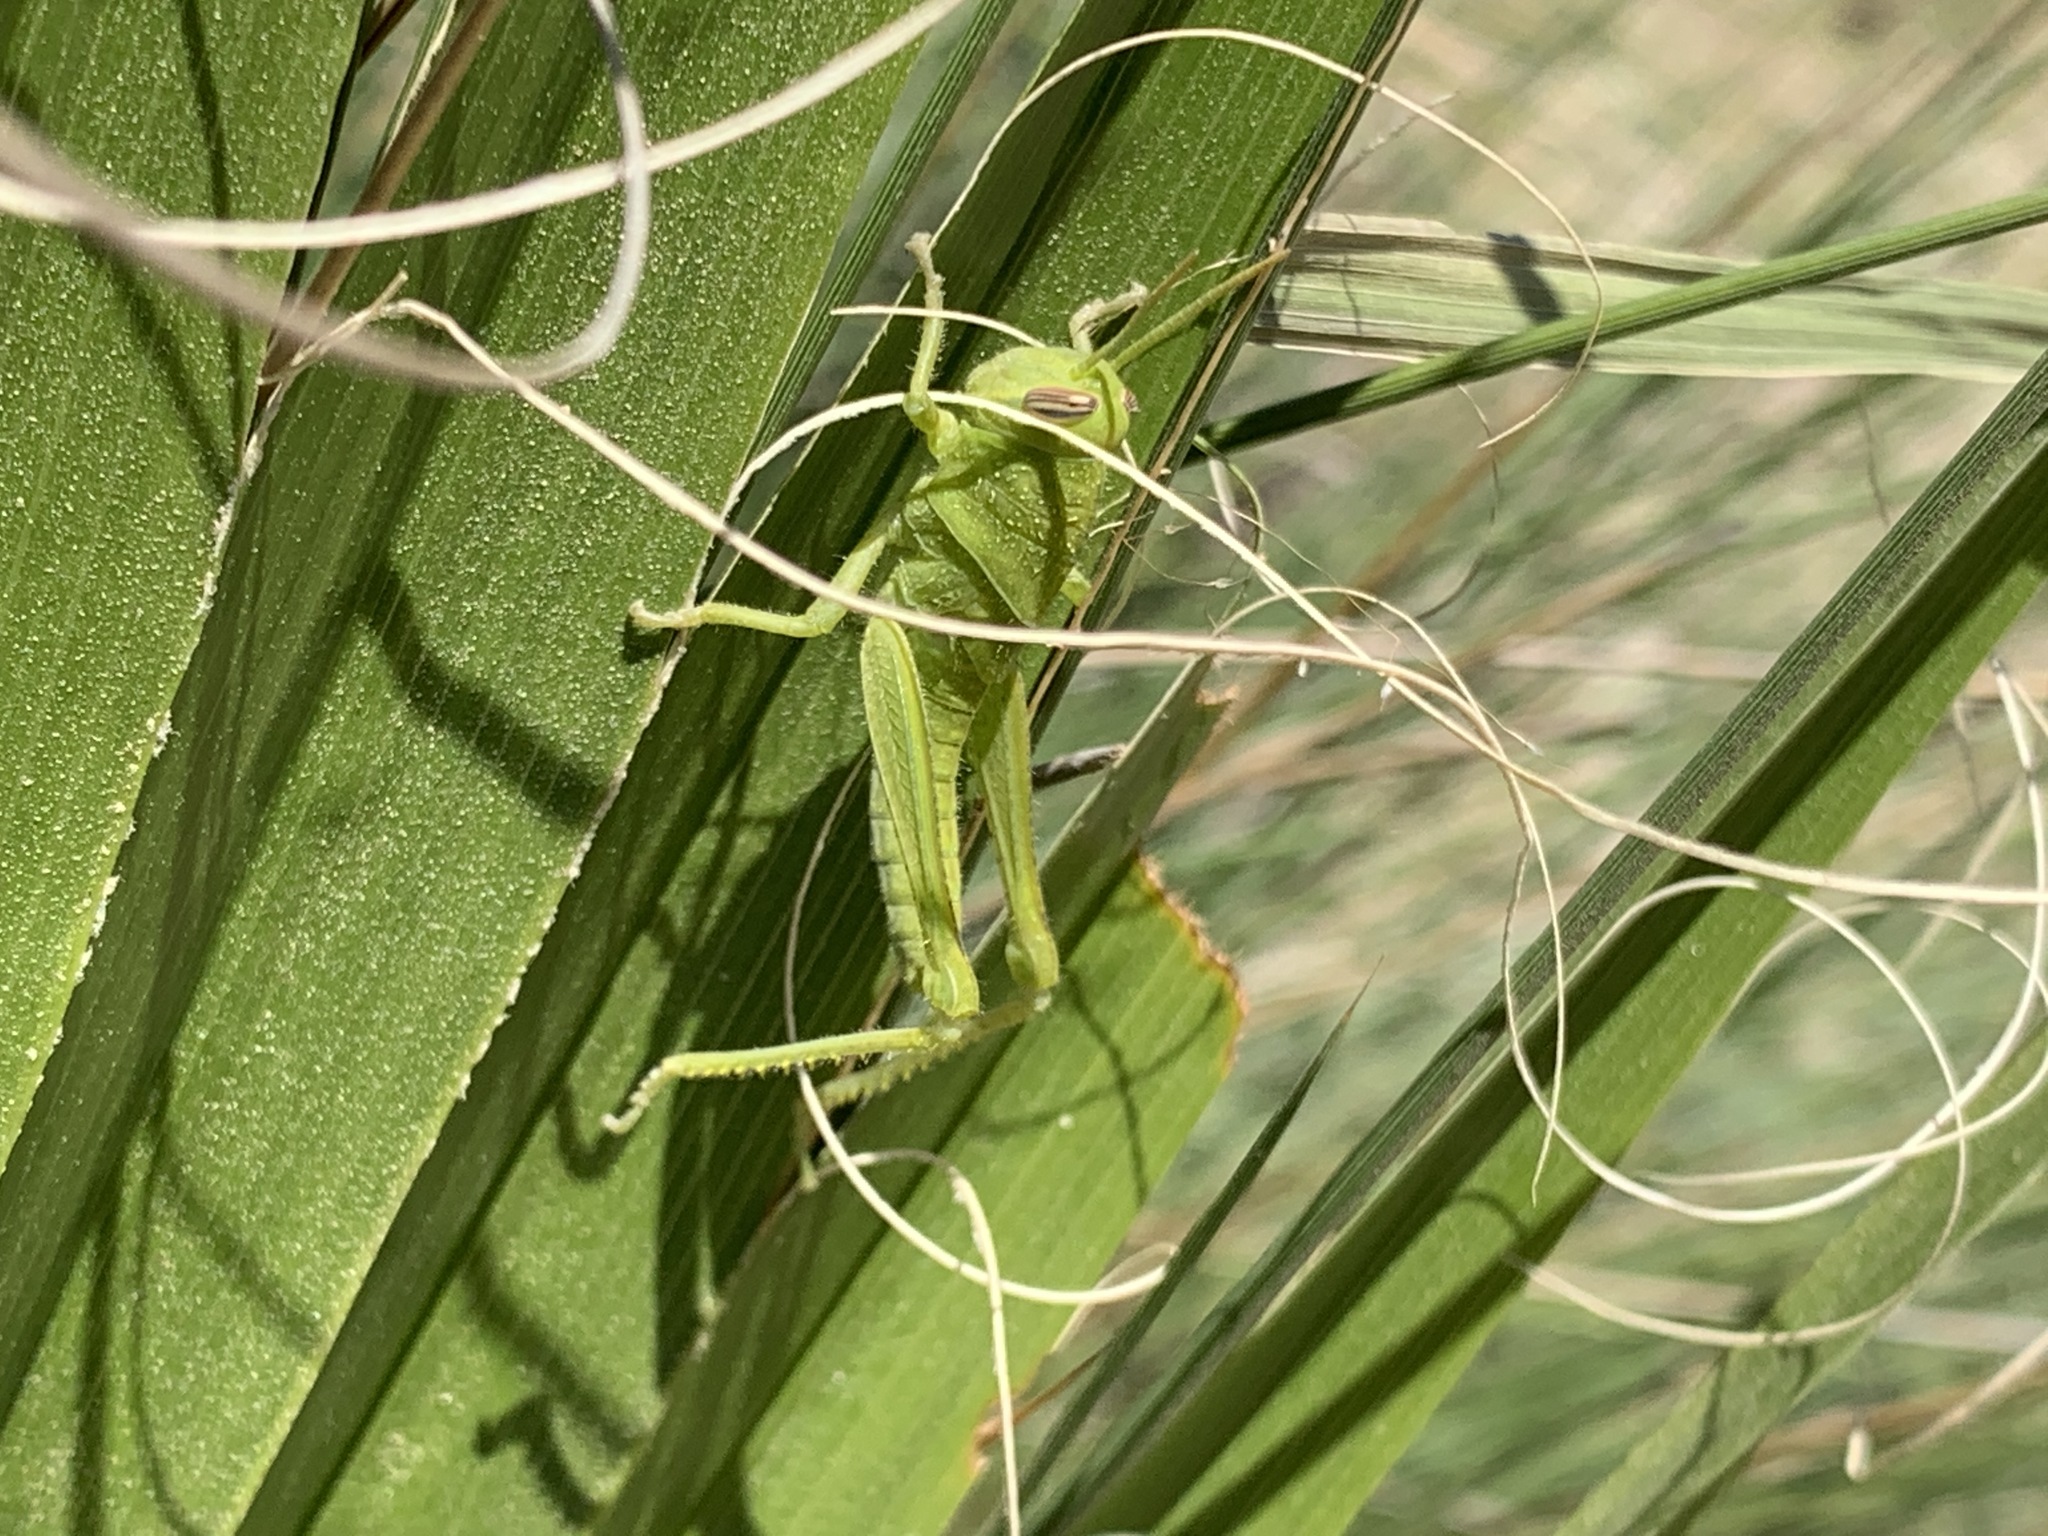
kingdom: Animalia
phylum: Arthropoda
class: Insecta
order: Orthoptera
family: Acrididae
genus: Schistocerca
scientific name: Schistocerca nitens
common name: Vagrant grasshopper
